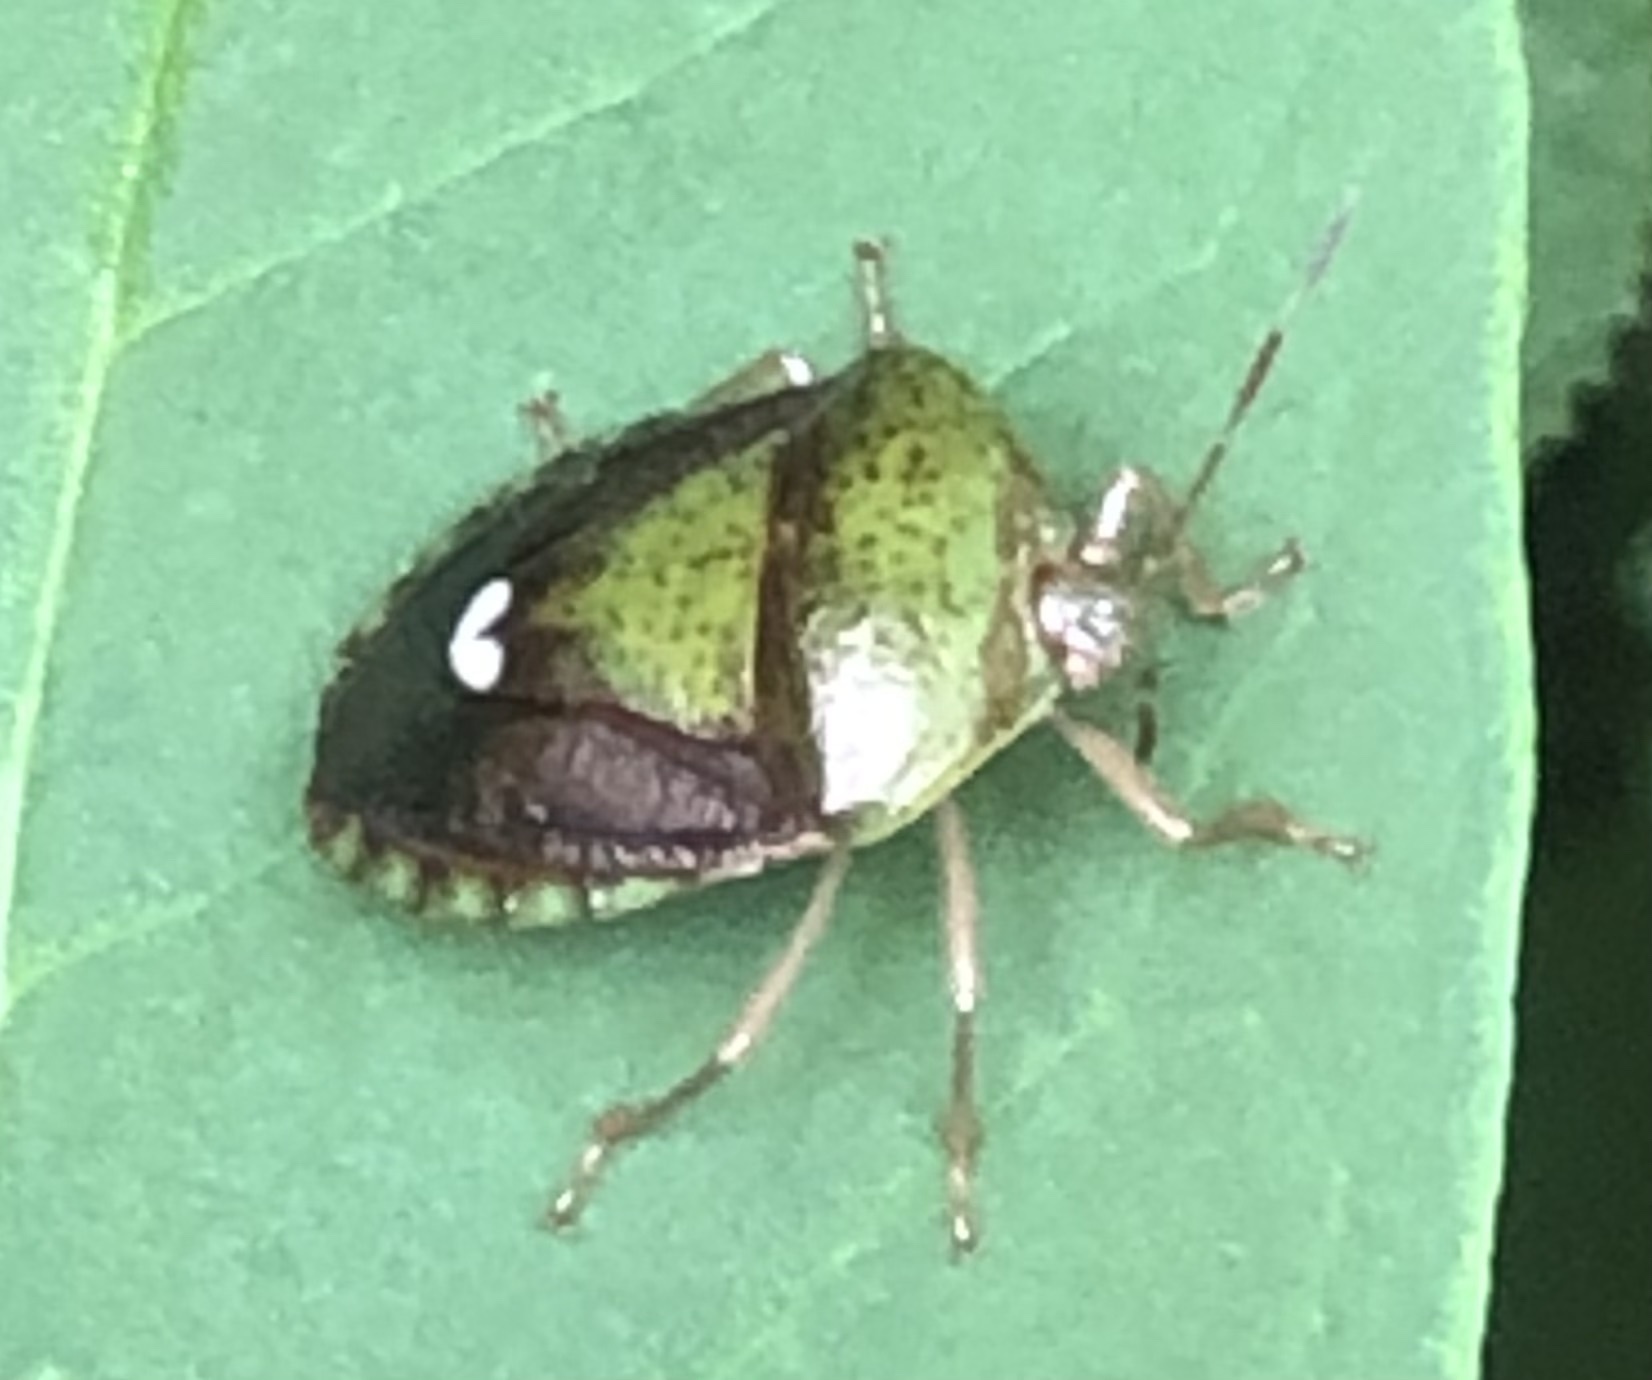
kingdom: Animalia
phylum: Arthropoda
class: Insecta
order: Hemiptera
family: Pentatomidae
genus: Edessa
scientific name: Edessa bifida
